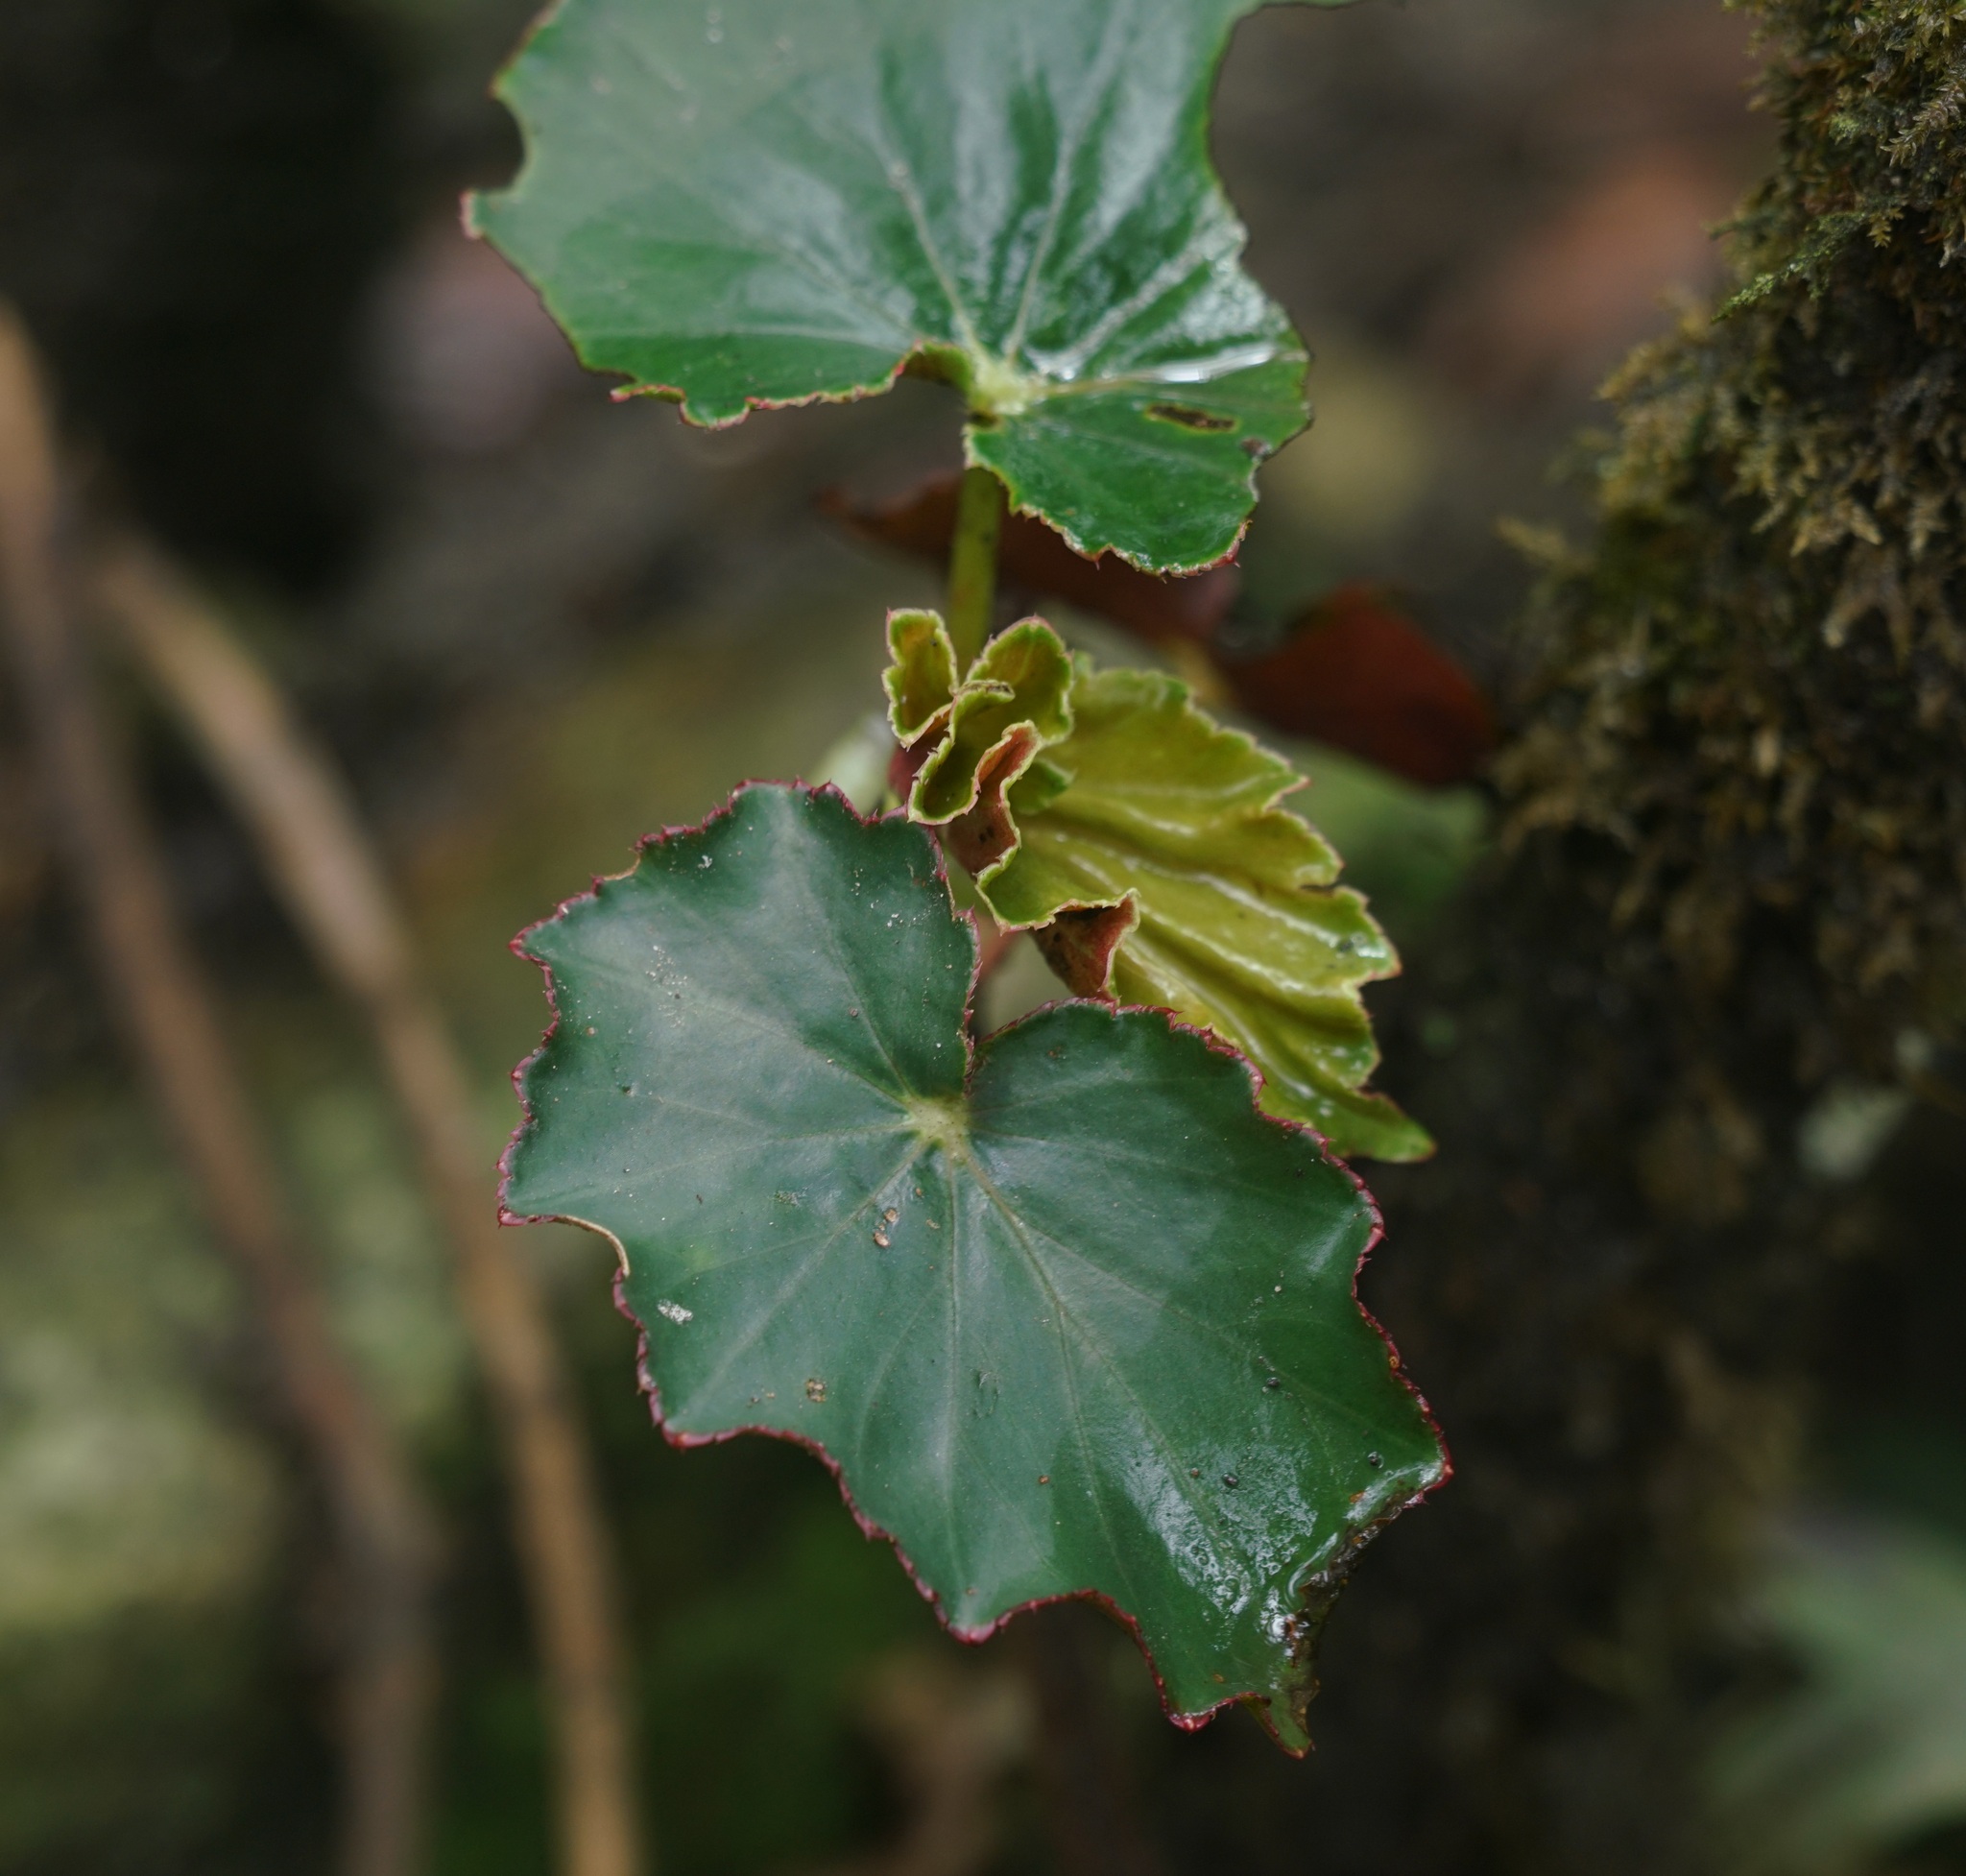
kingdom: Plantae
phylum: Tracheophyta
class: Magnoliopsida
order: Cucurbitales
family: Begoniaceae
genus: Begonia
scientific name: Begonia bracteosa
